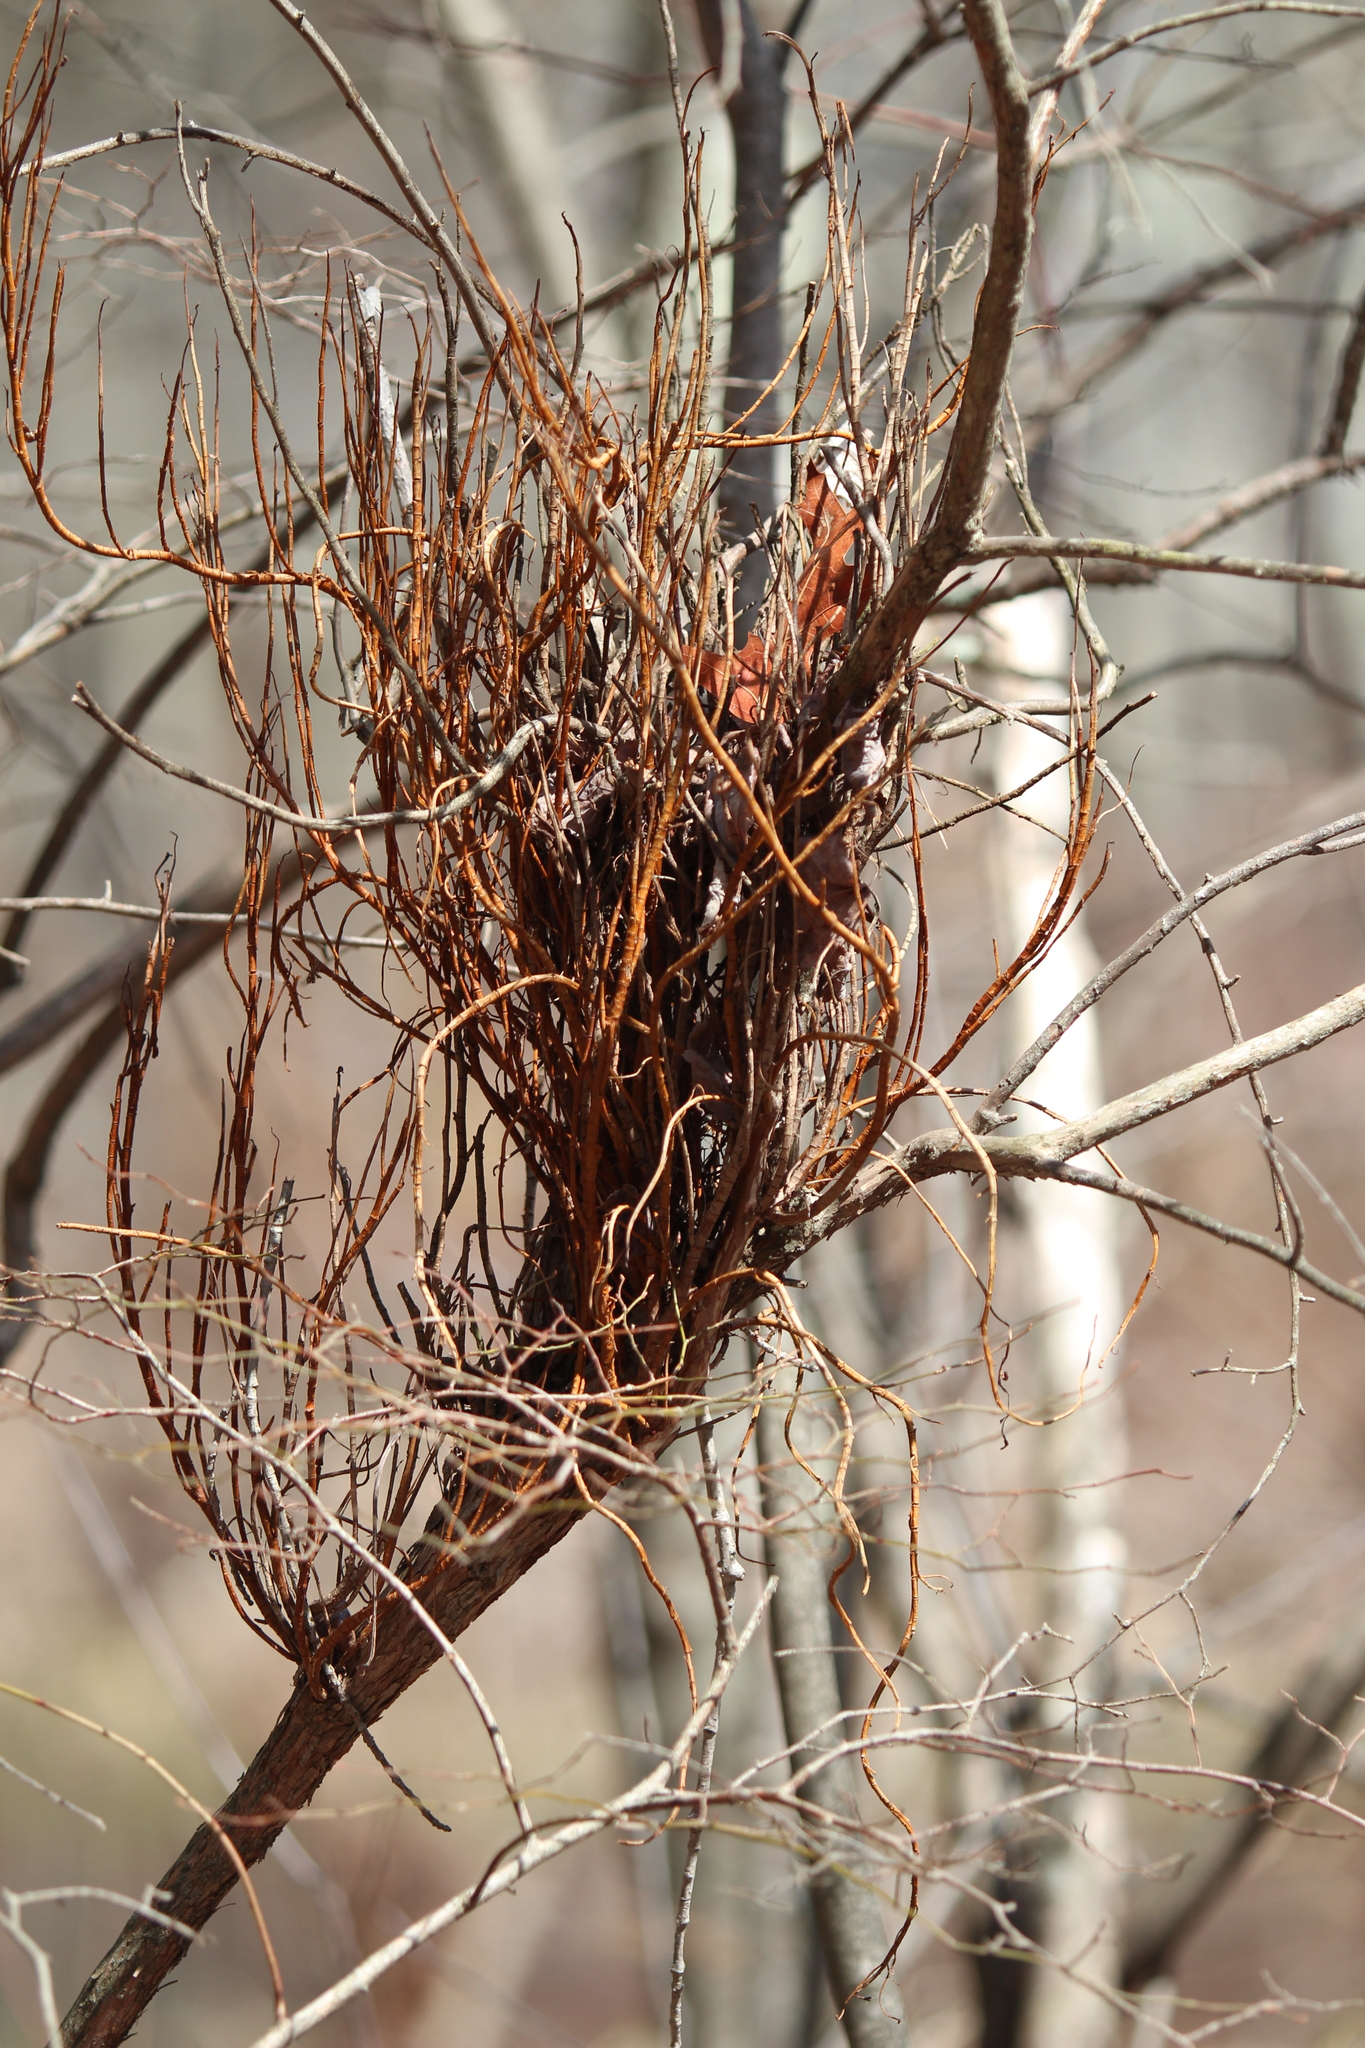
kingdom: Fungi
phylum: Basidiomycota
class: Pucciniomycetes
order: Pucciniales
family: Pucciniastraceae
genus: Calyptospora
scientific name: Calyptospora columnaris
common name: Huckleberry broom rust fungus
